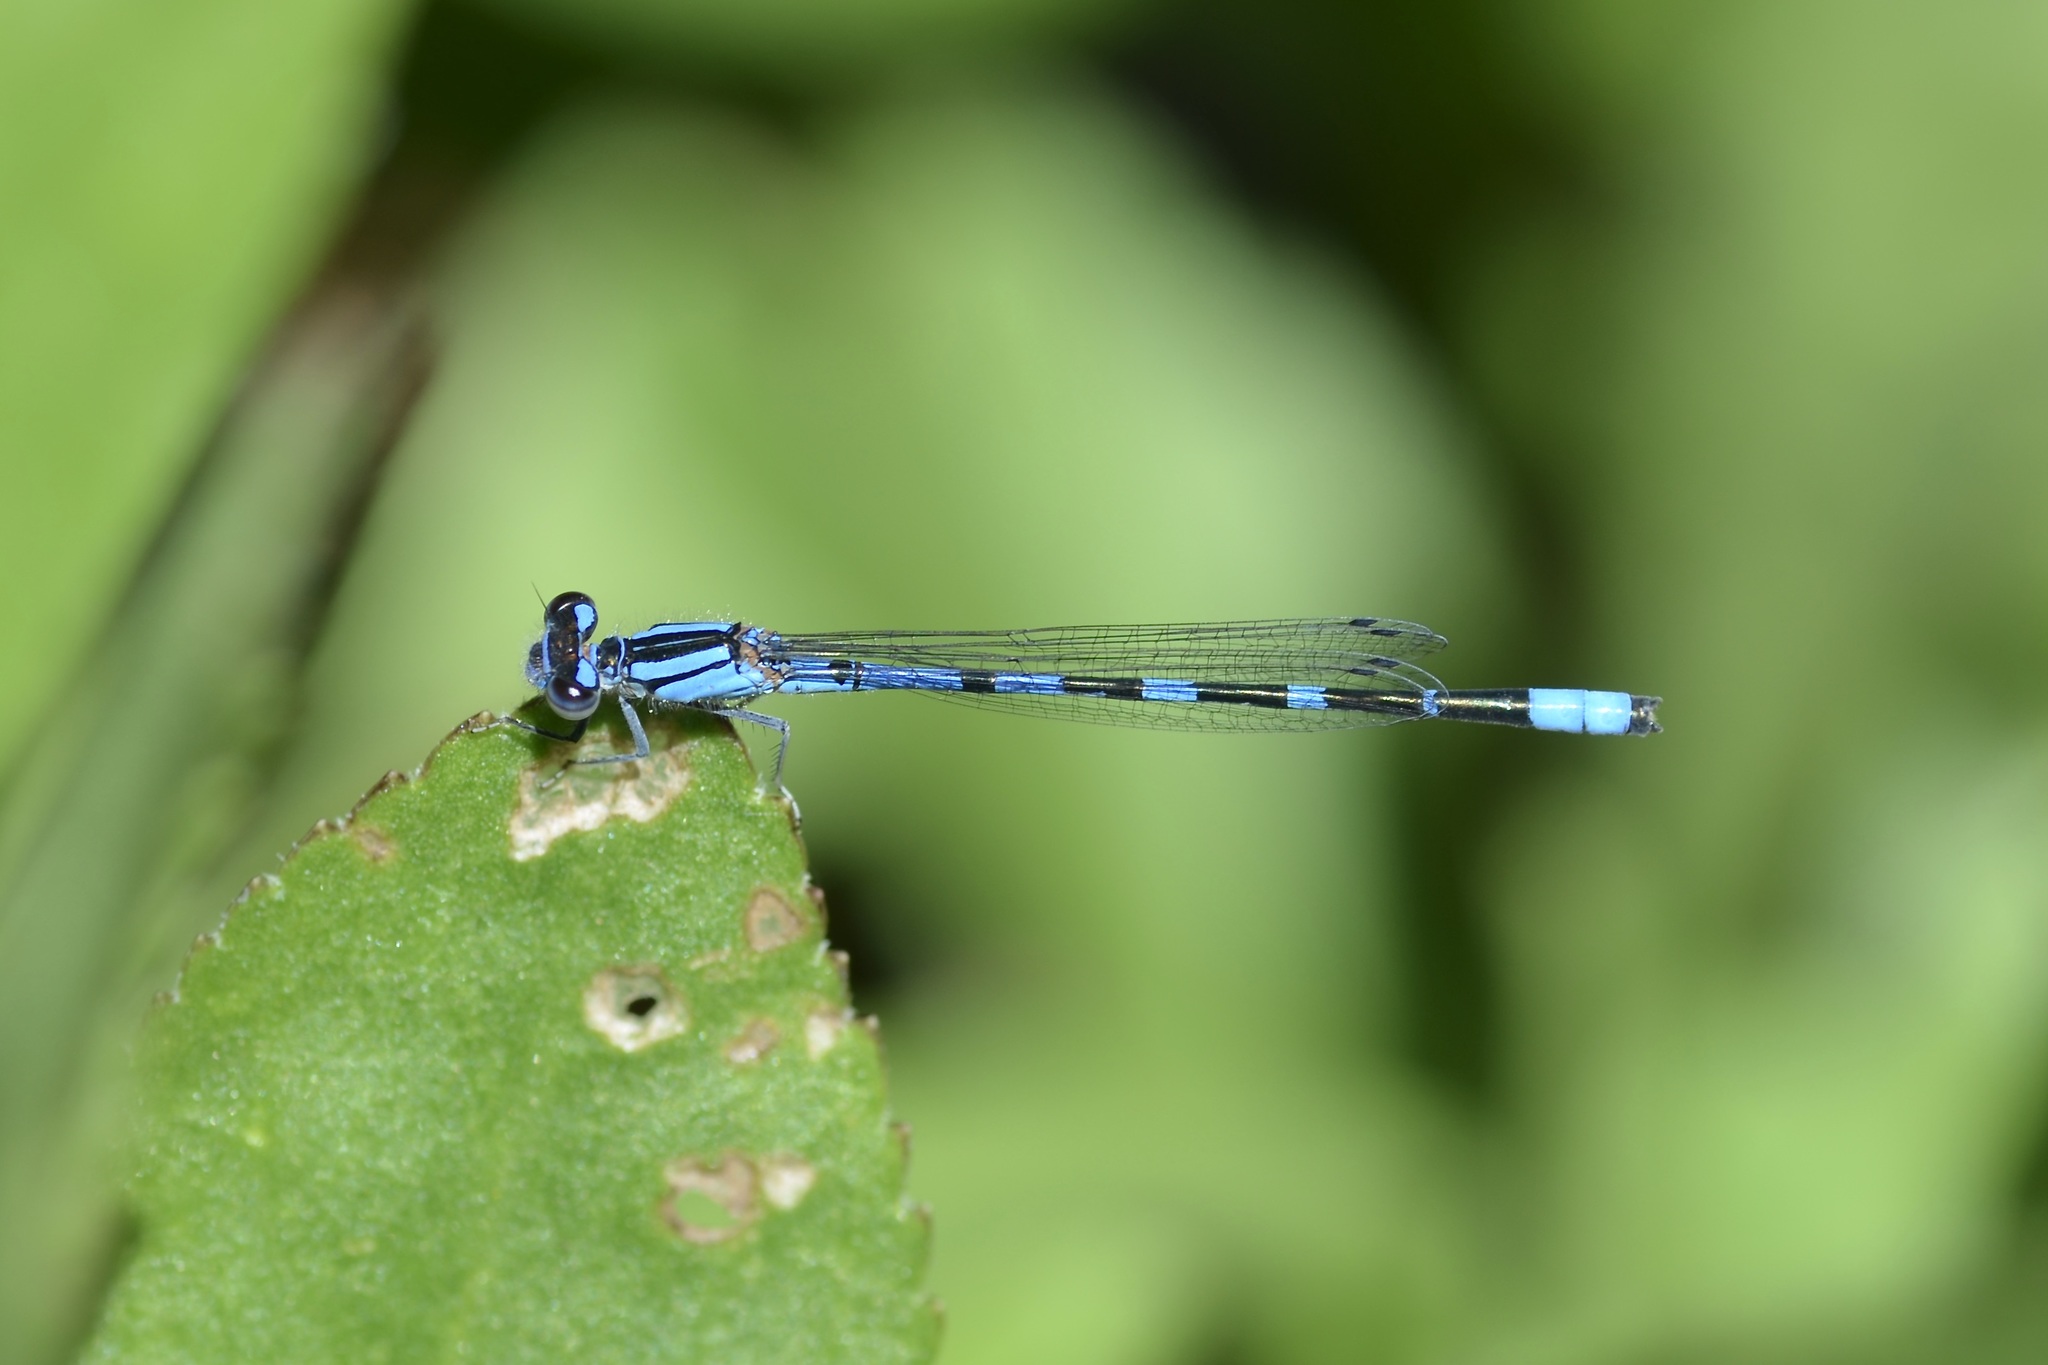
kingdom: Animalia
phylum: Arthropoda
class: Insecta
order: Odonata
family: Coenagrionidae
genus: Enallagma
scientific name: Enallagma praevarum
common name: Arroyo bluet
